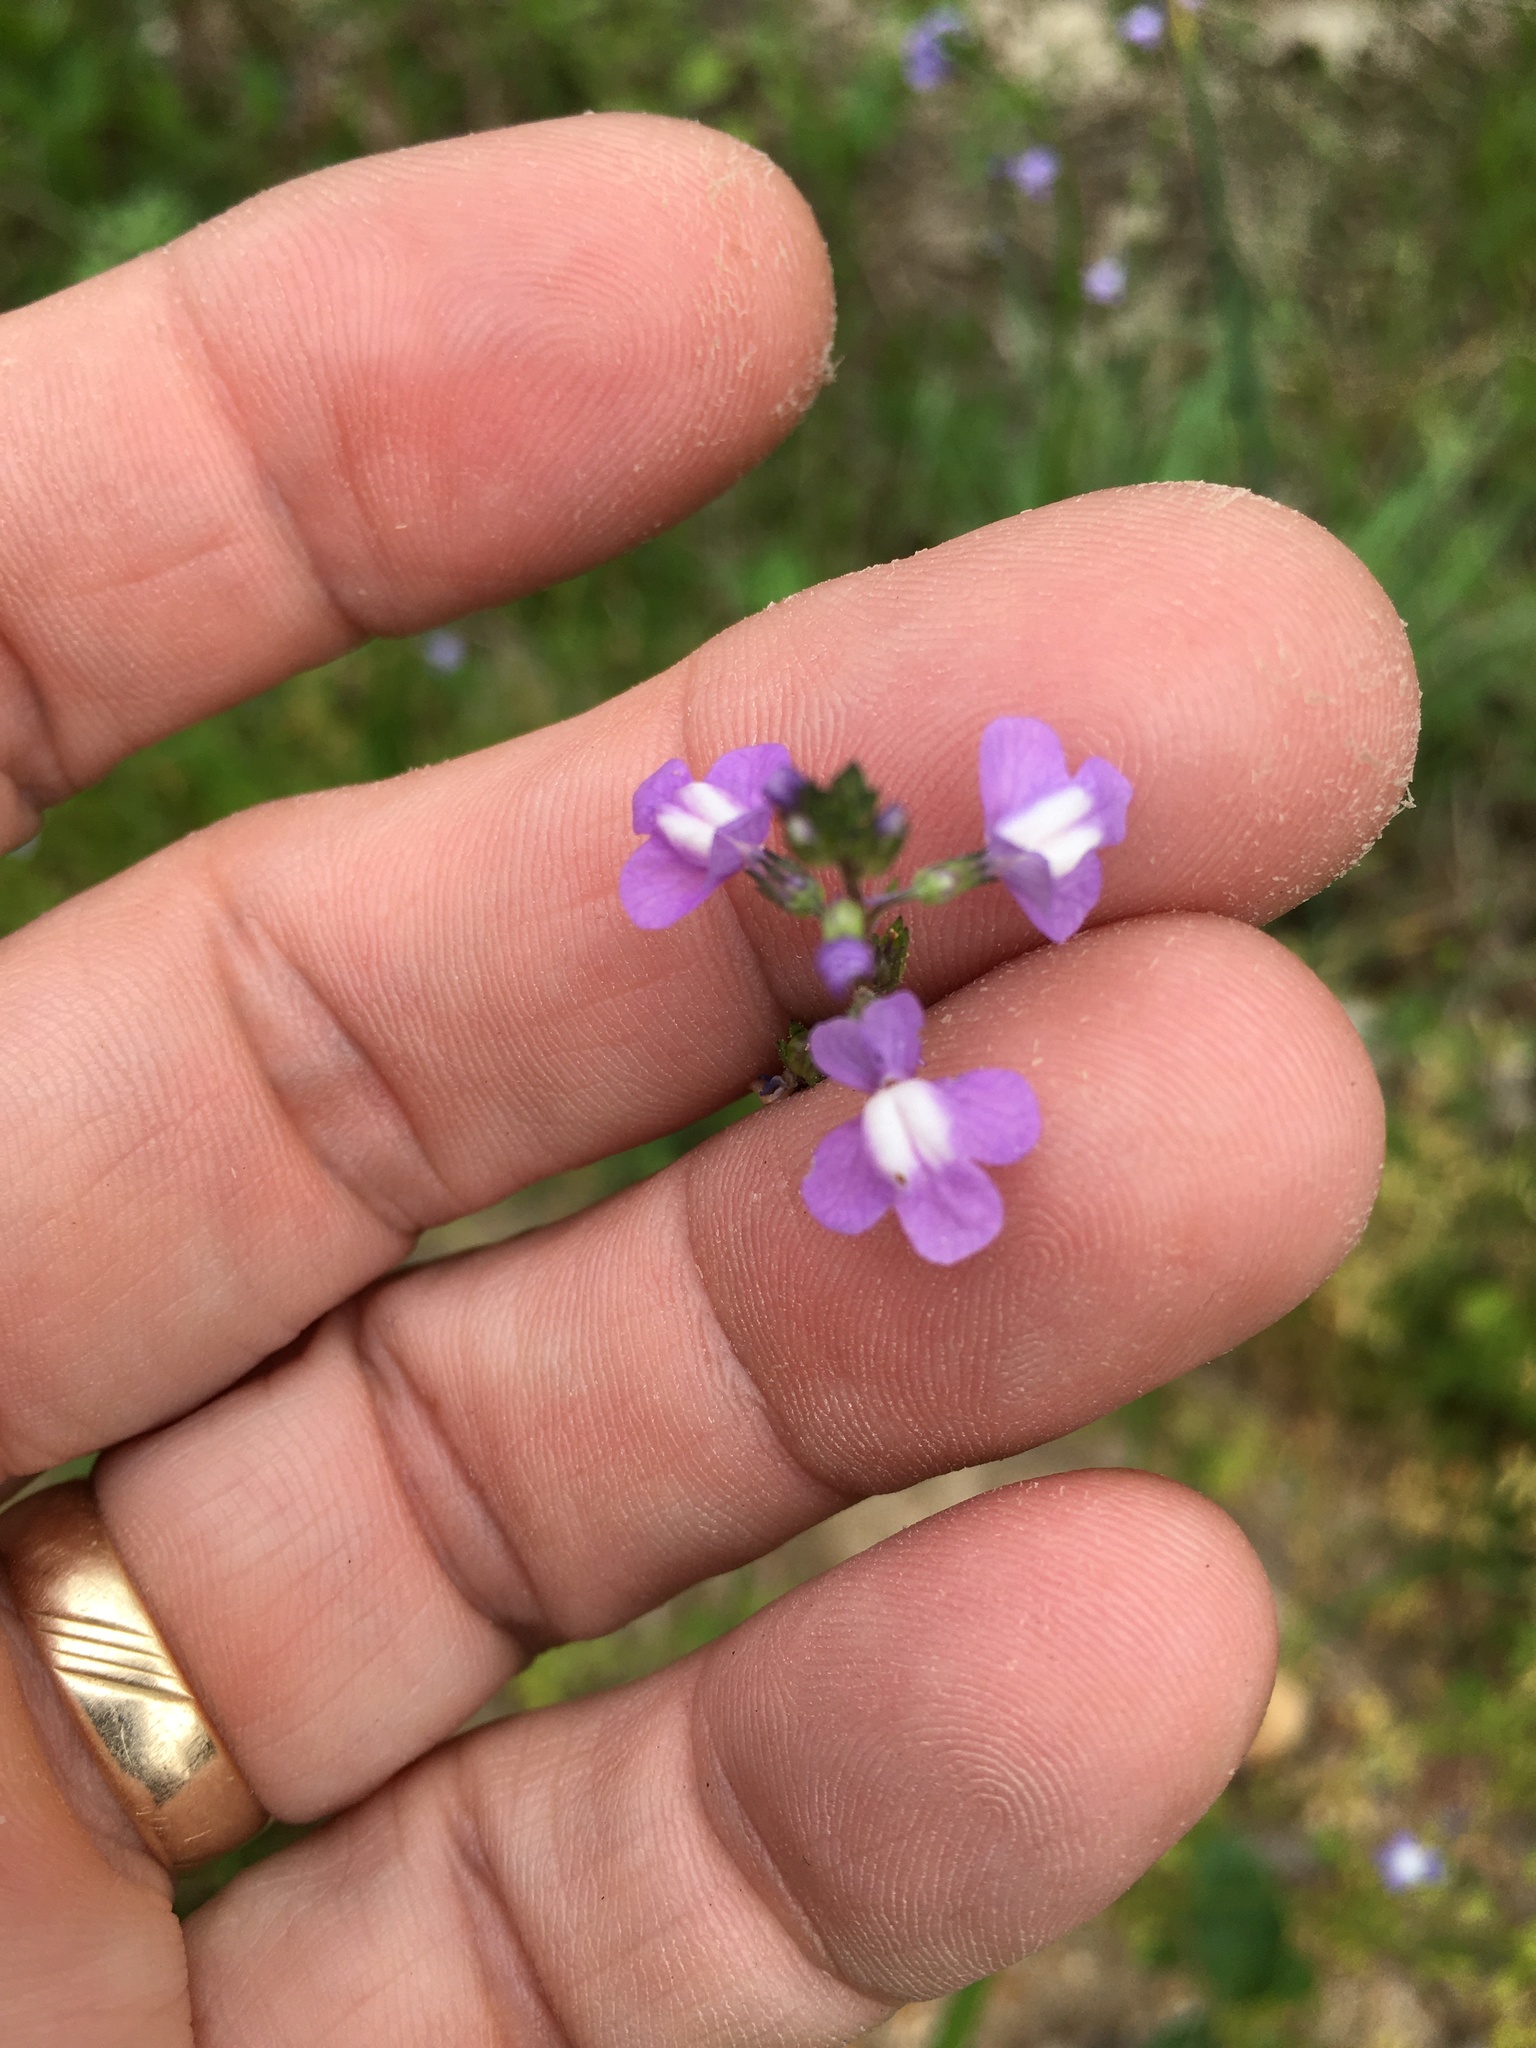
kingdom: Plantae
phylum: Tracheophyta
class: Magnoliopsida
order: Lamiales
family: Plantaginaceae
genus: Nuttallanthus
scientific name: Nuttallanthus canadensis
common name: Blue toadflax
